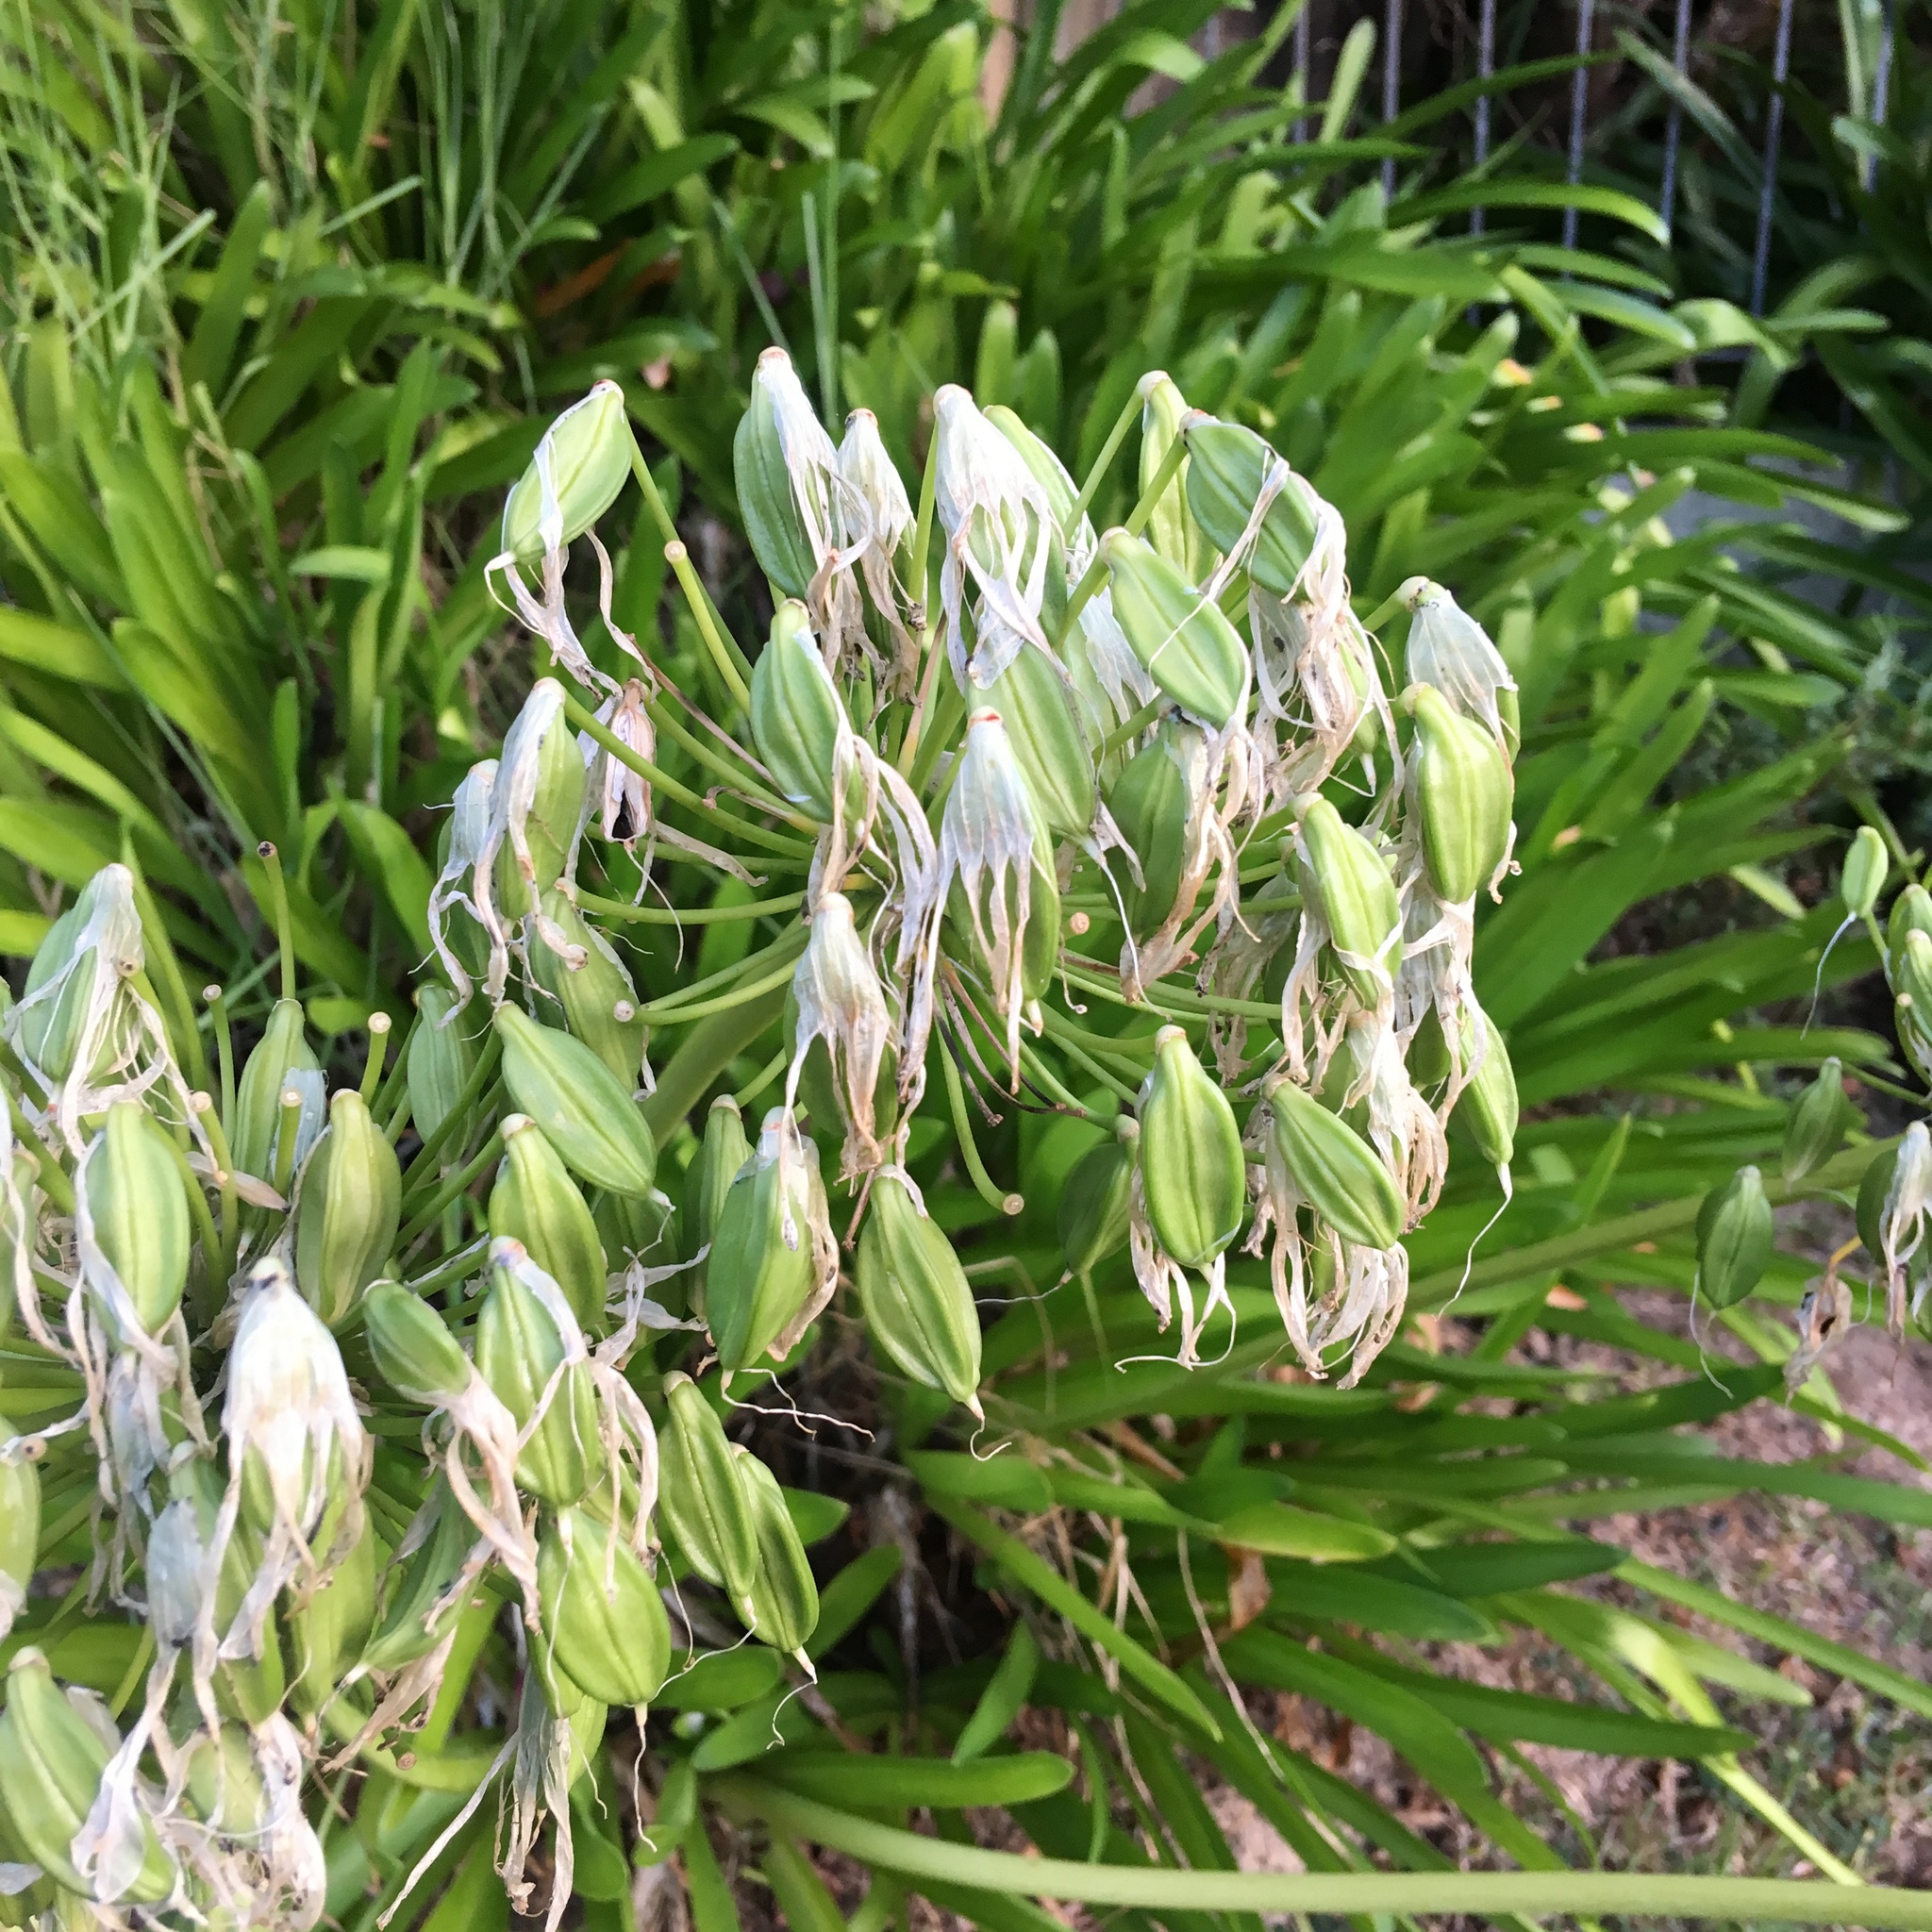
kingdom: Plantae
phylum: Tracheophyta
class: Liliopsida
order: Asparagales
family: Amaryllidaceae
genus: Agapanthus
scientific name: Agapanthus praecox
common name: African-lily
